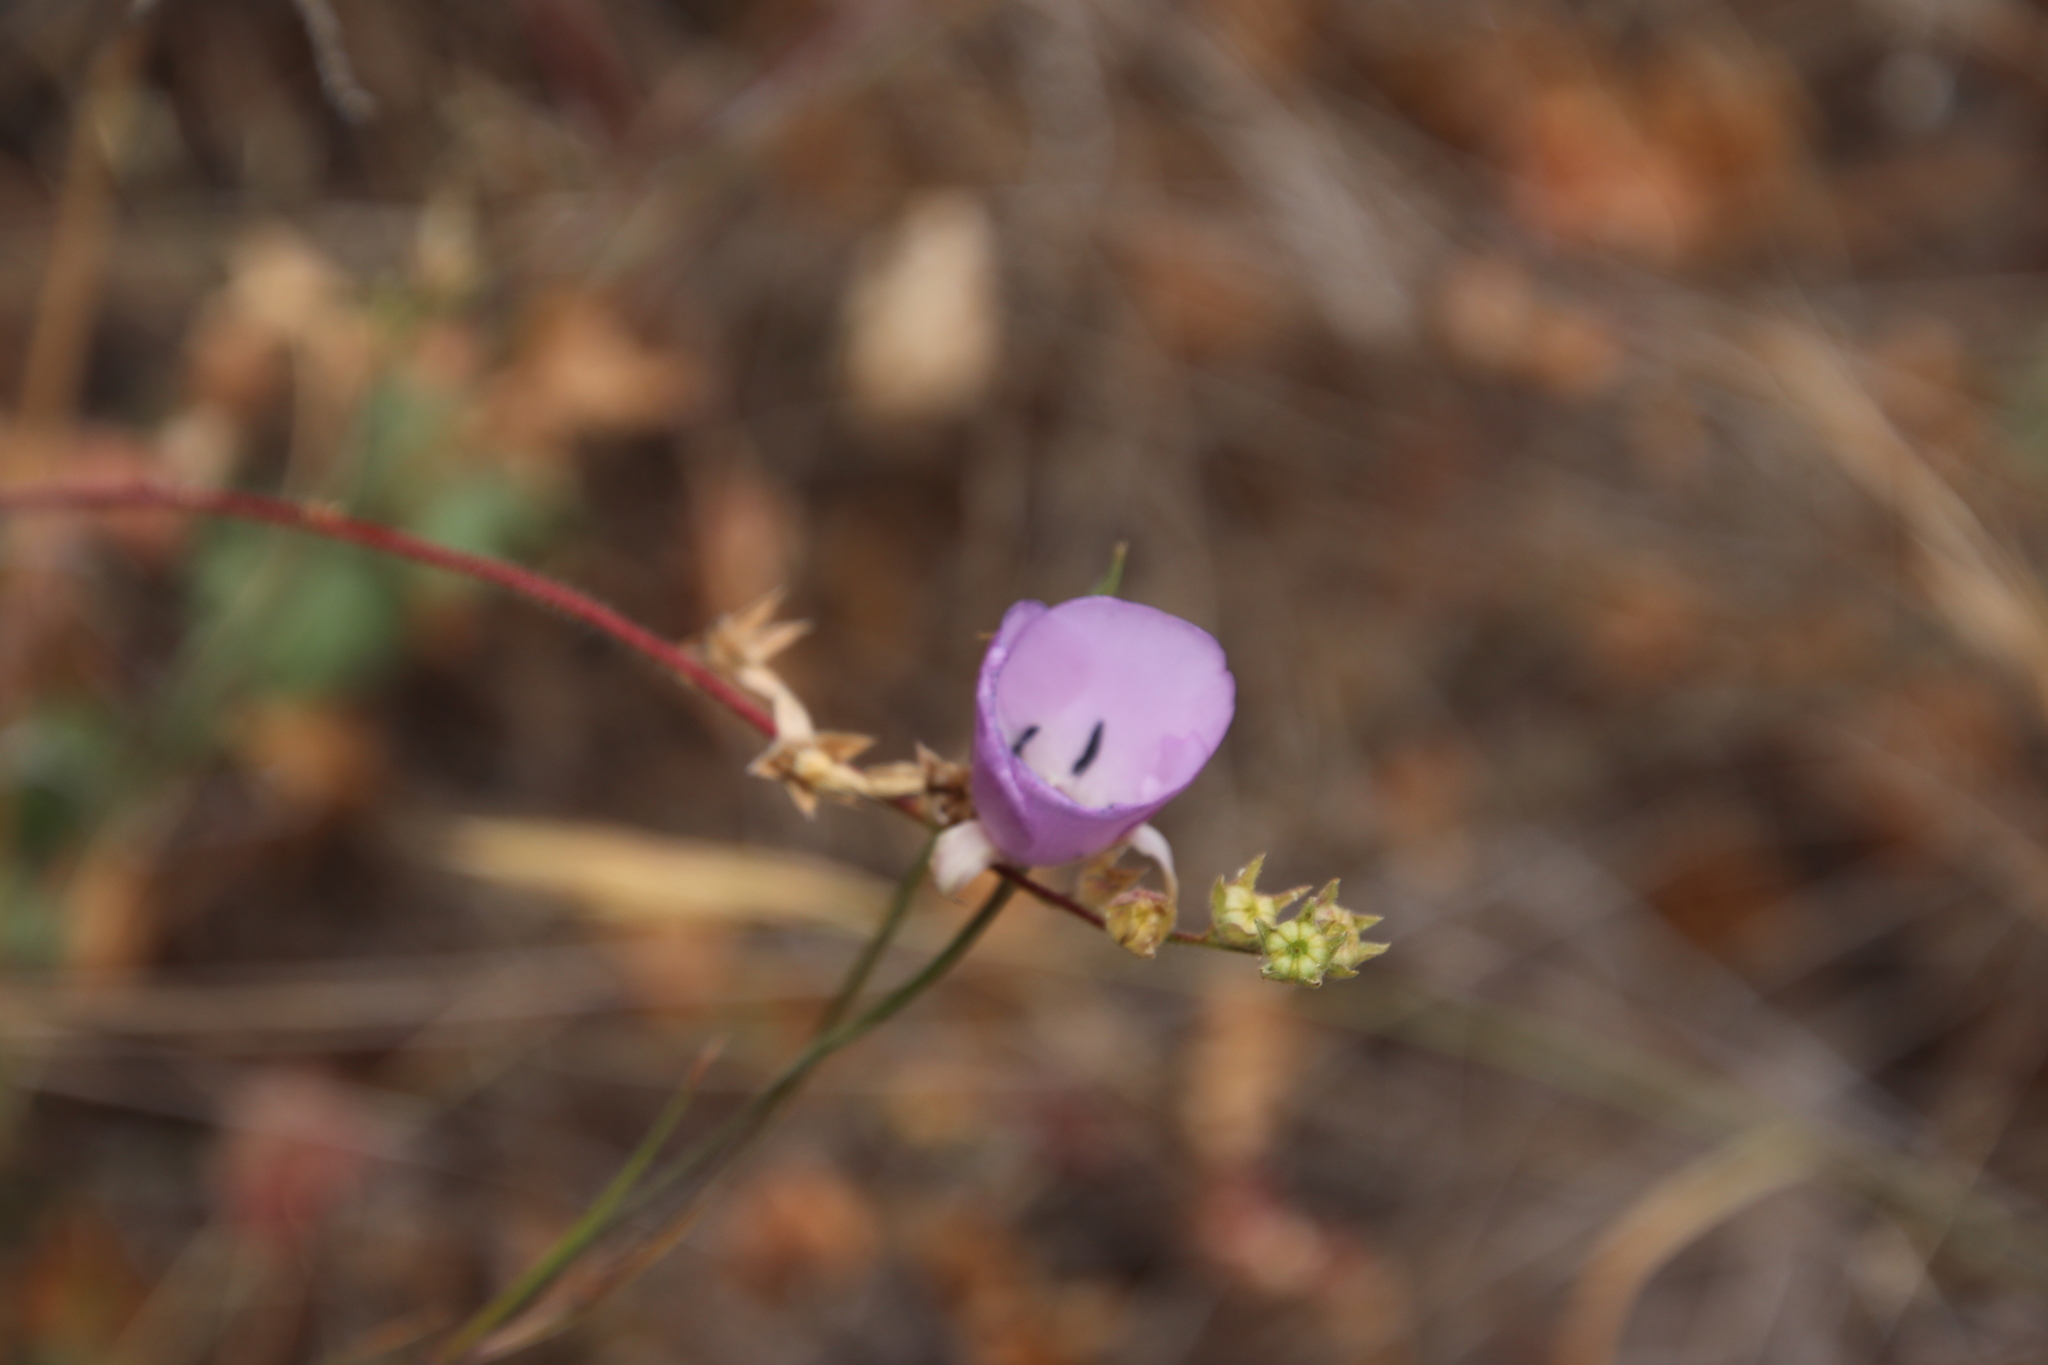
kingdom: Plantae
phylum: Tracheophyta
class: Liliopsida
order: Liliales
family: Liliaceae
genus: Calochortus
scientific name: Calochortus splendens
